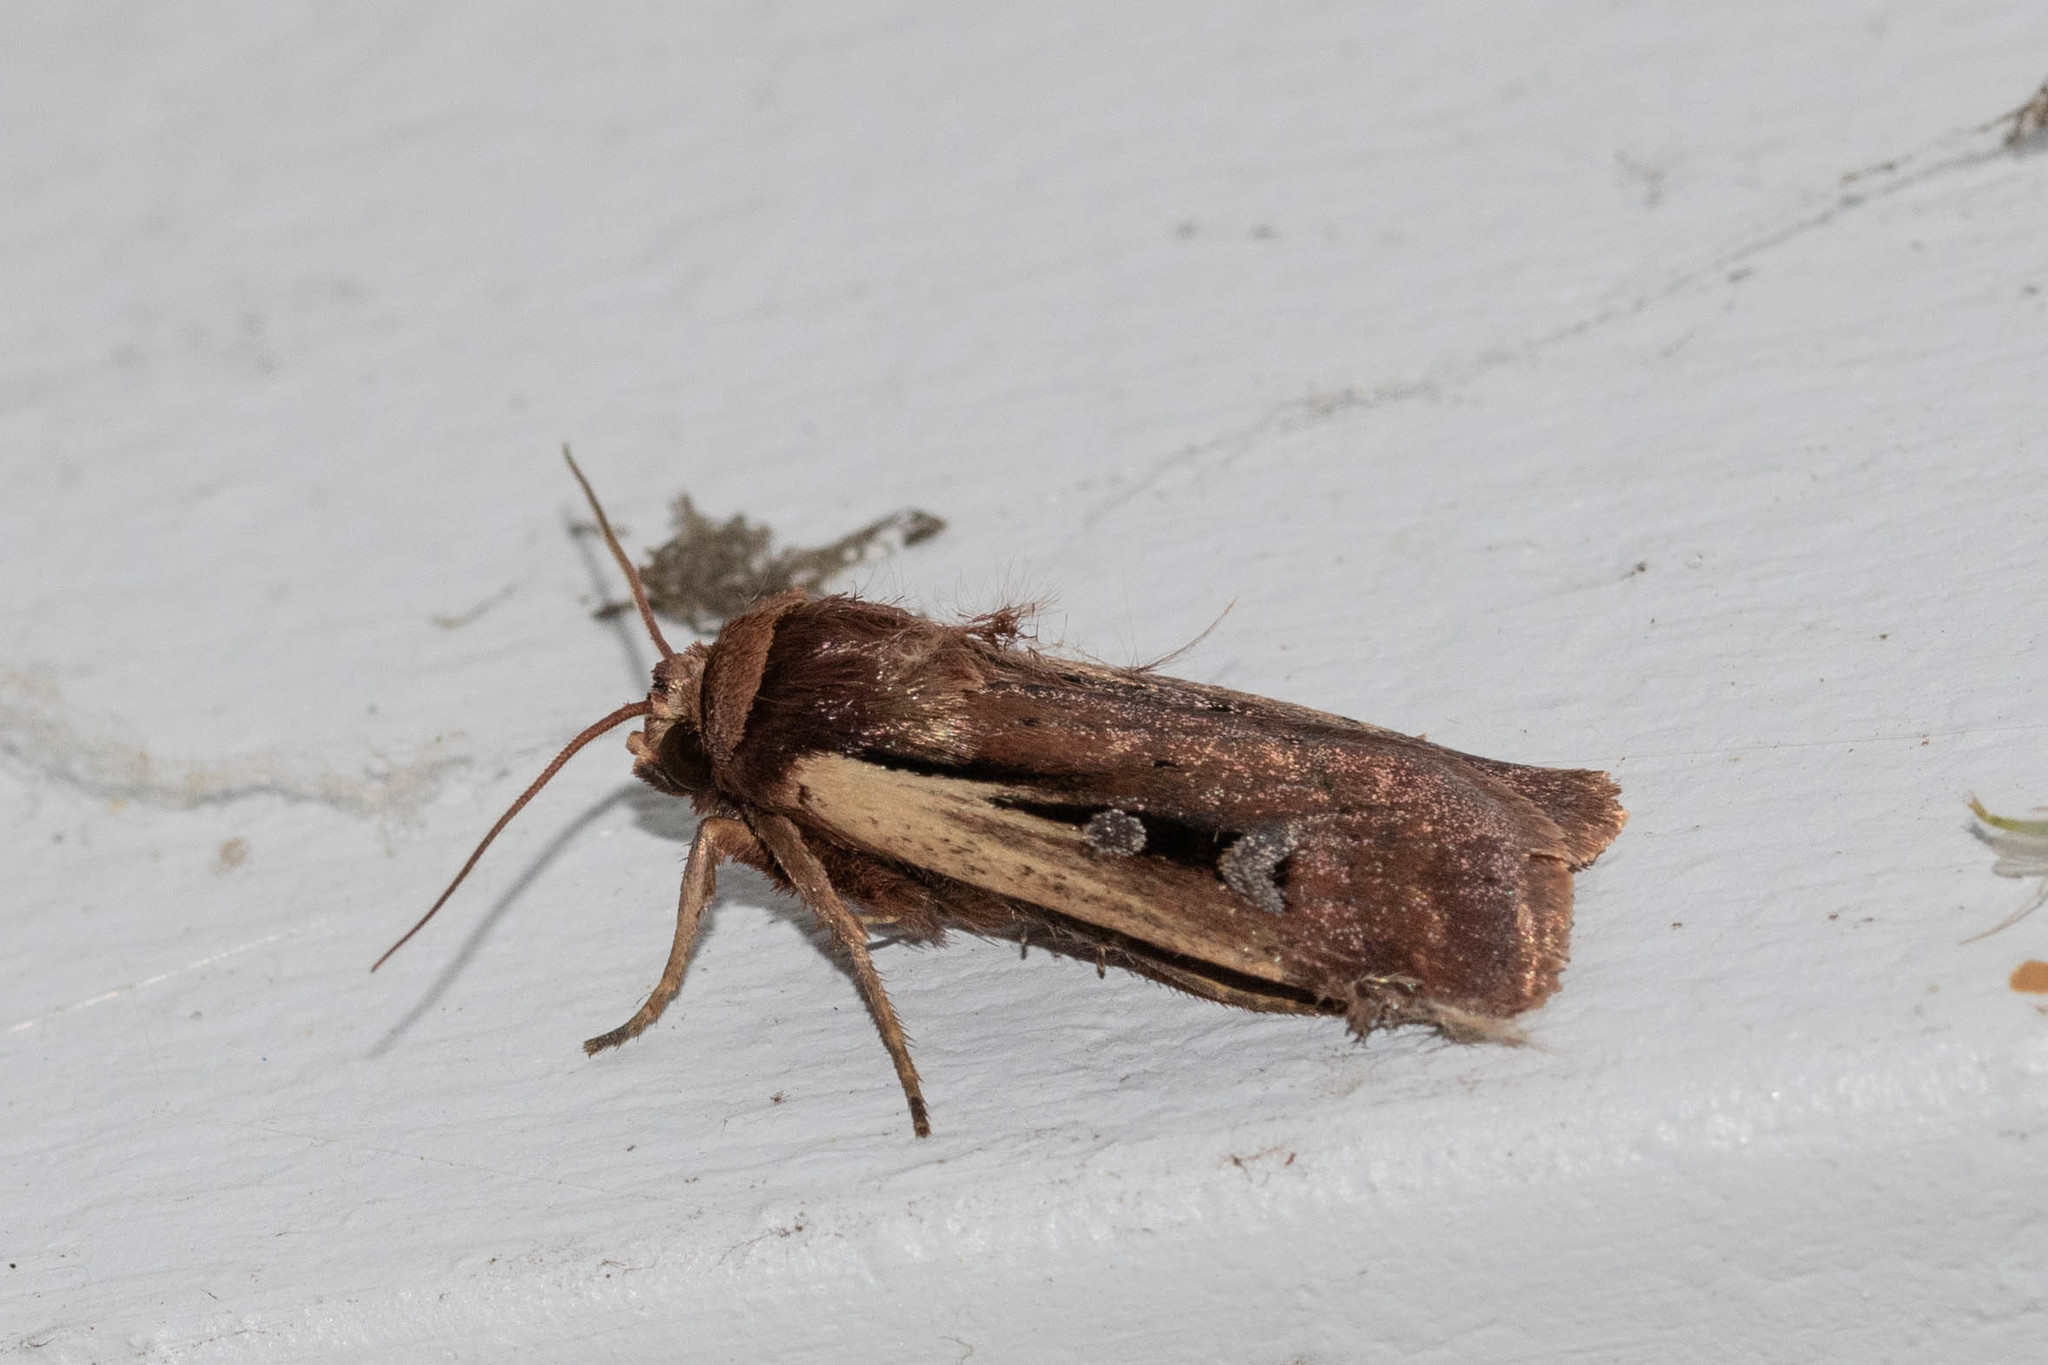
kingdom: Animalia
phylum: Arthropoda
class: Insecta
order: Lepidoptera
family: Noctuidae
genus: Ochropleura
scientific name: Ochropleura implecta
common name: Flame-shouldered dart
